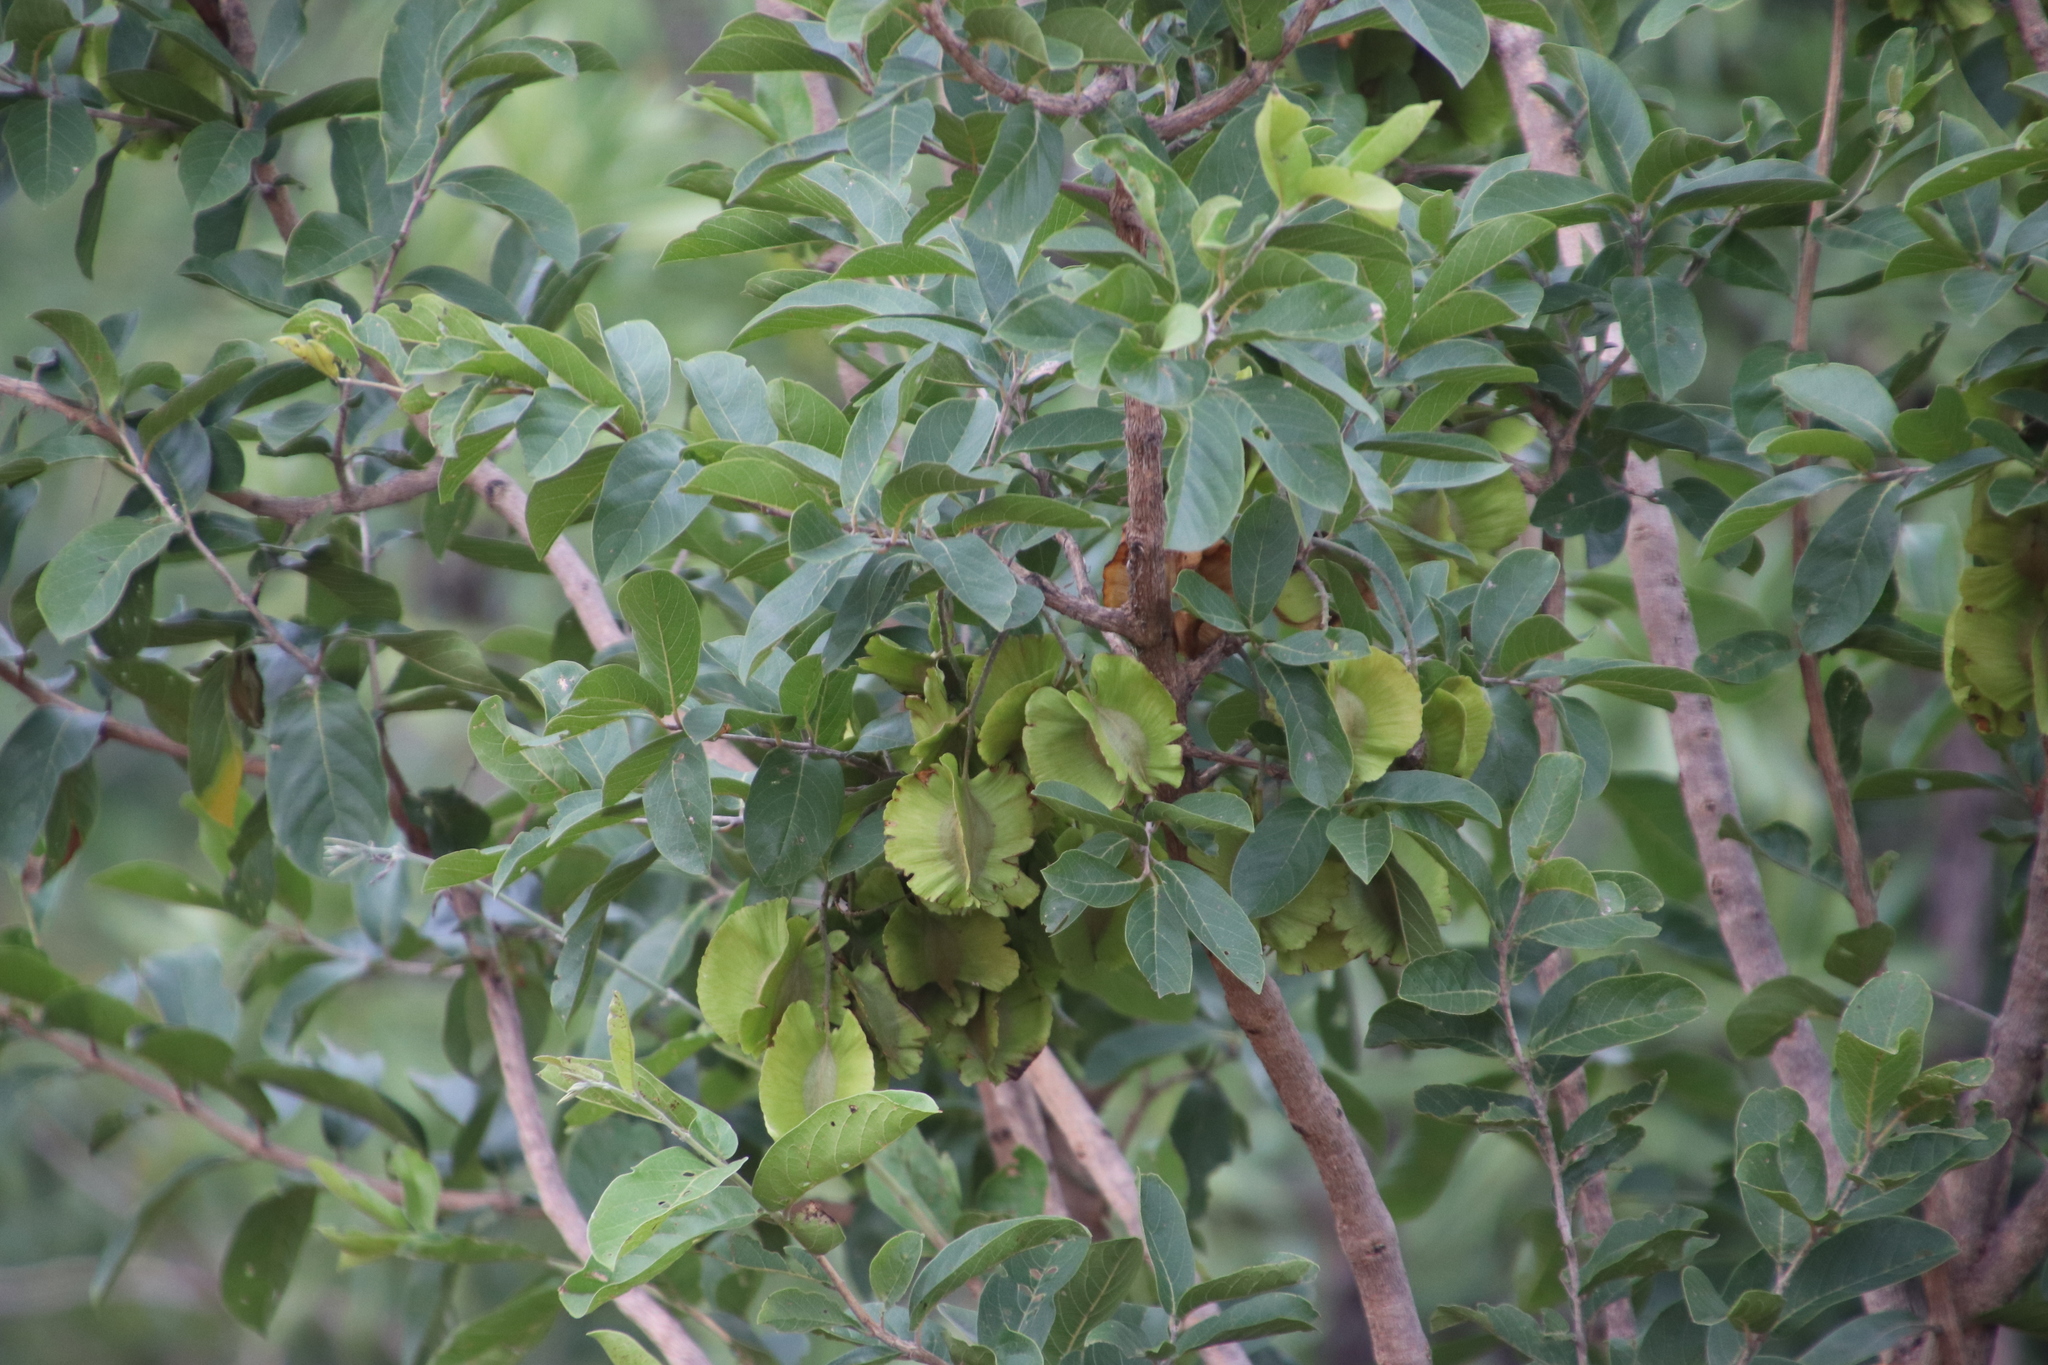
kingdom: Plantae
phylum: Tracheophyta
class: Magnoliopsida
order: Myrtales
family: Combretaceae
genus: Combretum
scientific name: Combretum zeyheri
